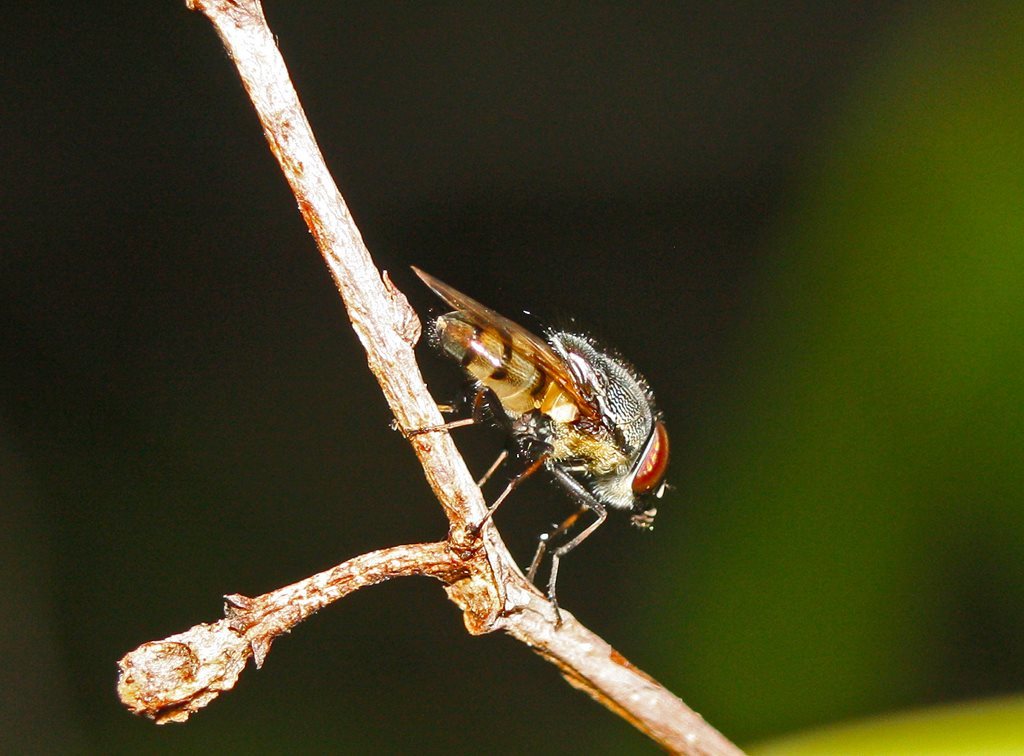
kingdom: Animalia
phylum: Arthropoda
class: Insecta
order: Diptera
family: Calliphoridae
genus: Stomorhina
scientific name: Stomorhina discolor
